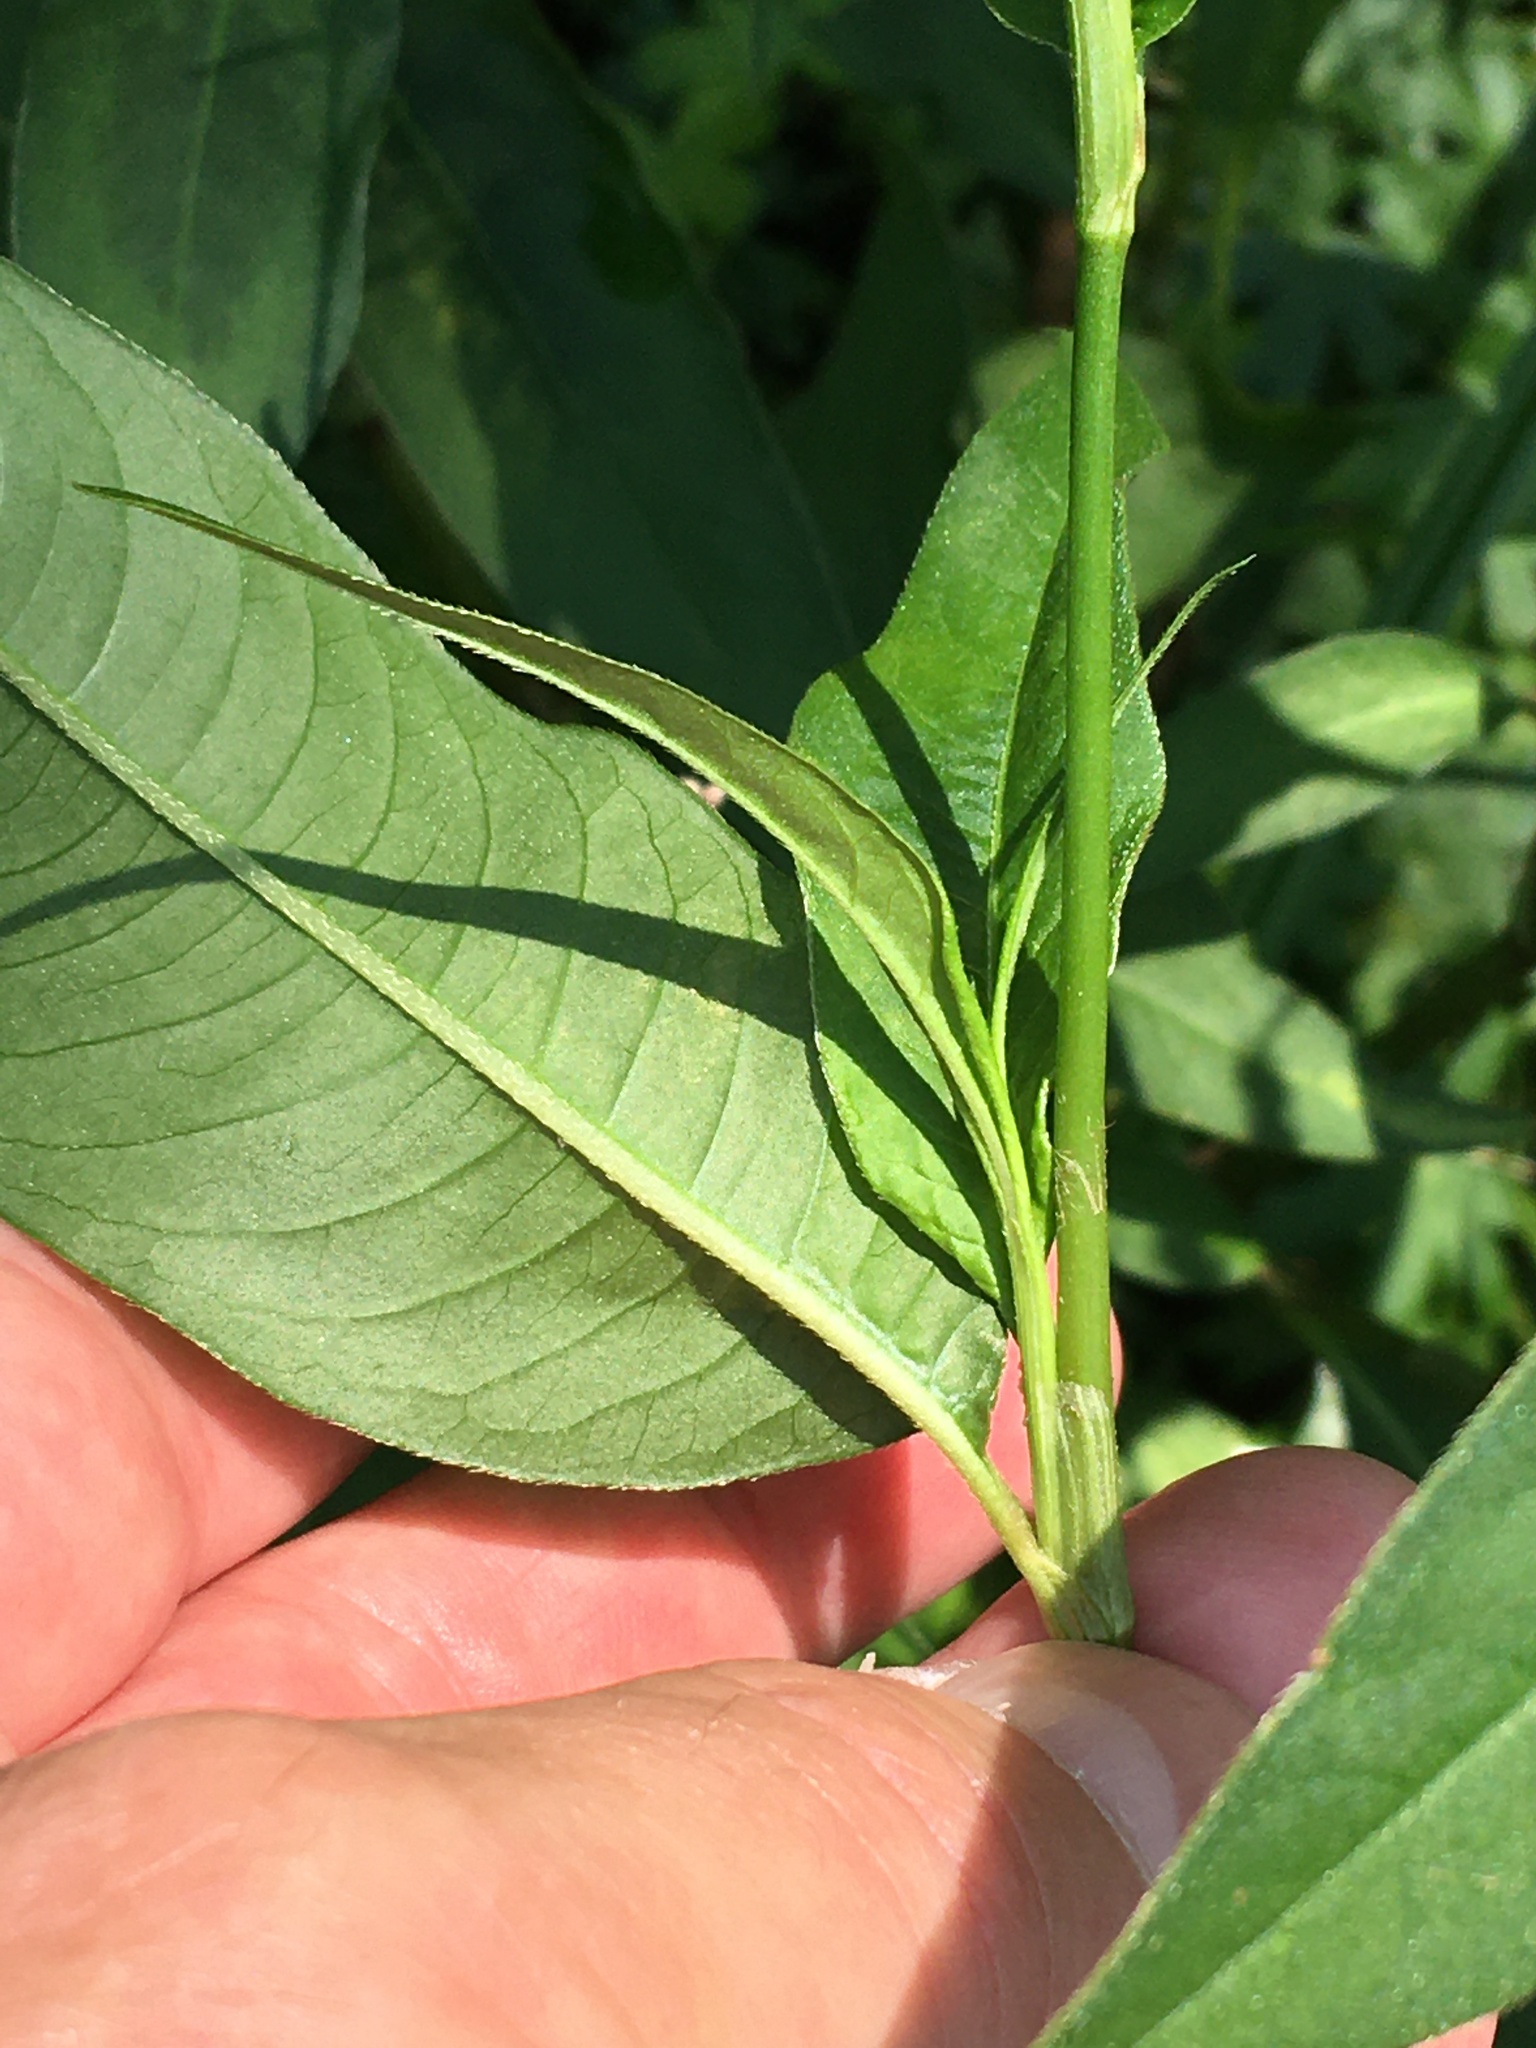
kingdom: Plantae
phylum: Tracheophyta
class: Magnoliopsida
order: Caryophyllales
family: Polygonaceae
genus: Persicaria
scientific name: Persicaria extremiorientalis
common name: Far-eastern smartweed
